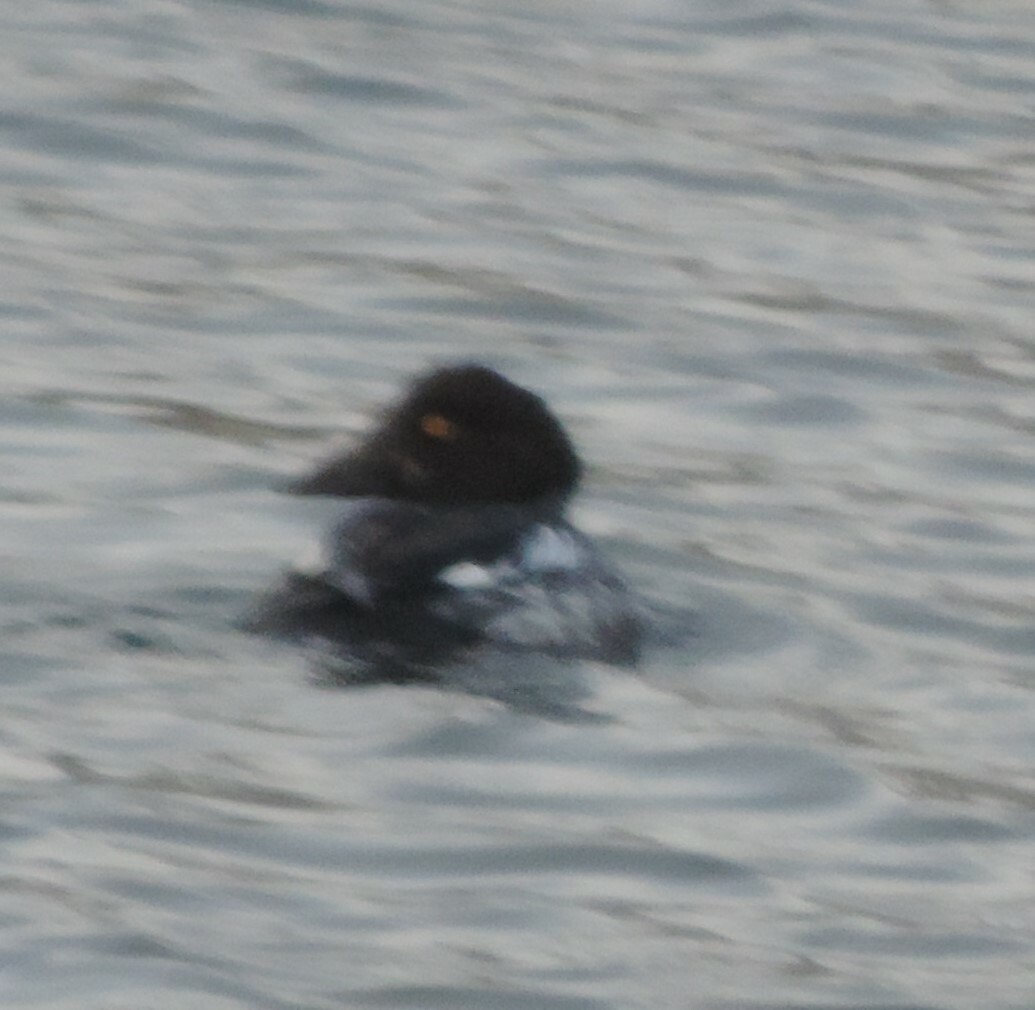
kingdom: Animalia
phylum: Chordata
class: Aves
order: Anseriformes
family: Anatidae
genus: Bucephala
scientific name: Bucephala clangula
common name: Common goldeneye
